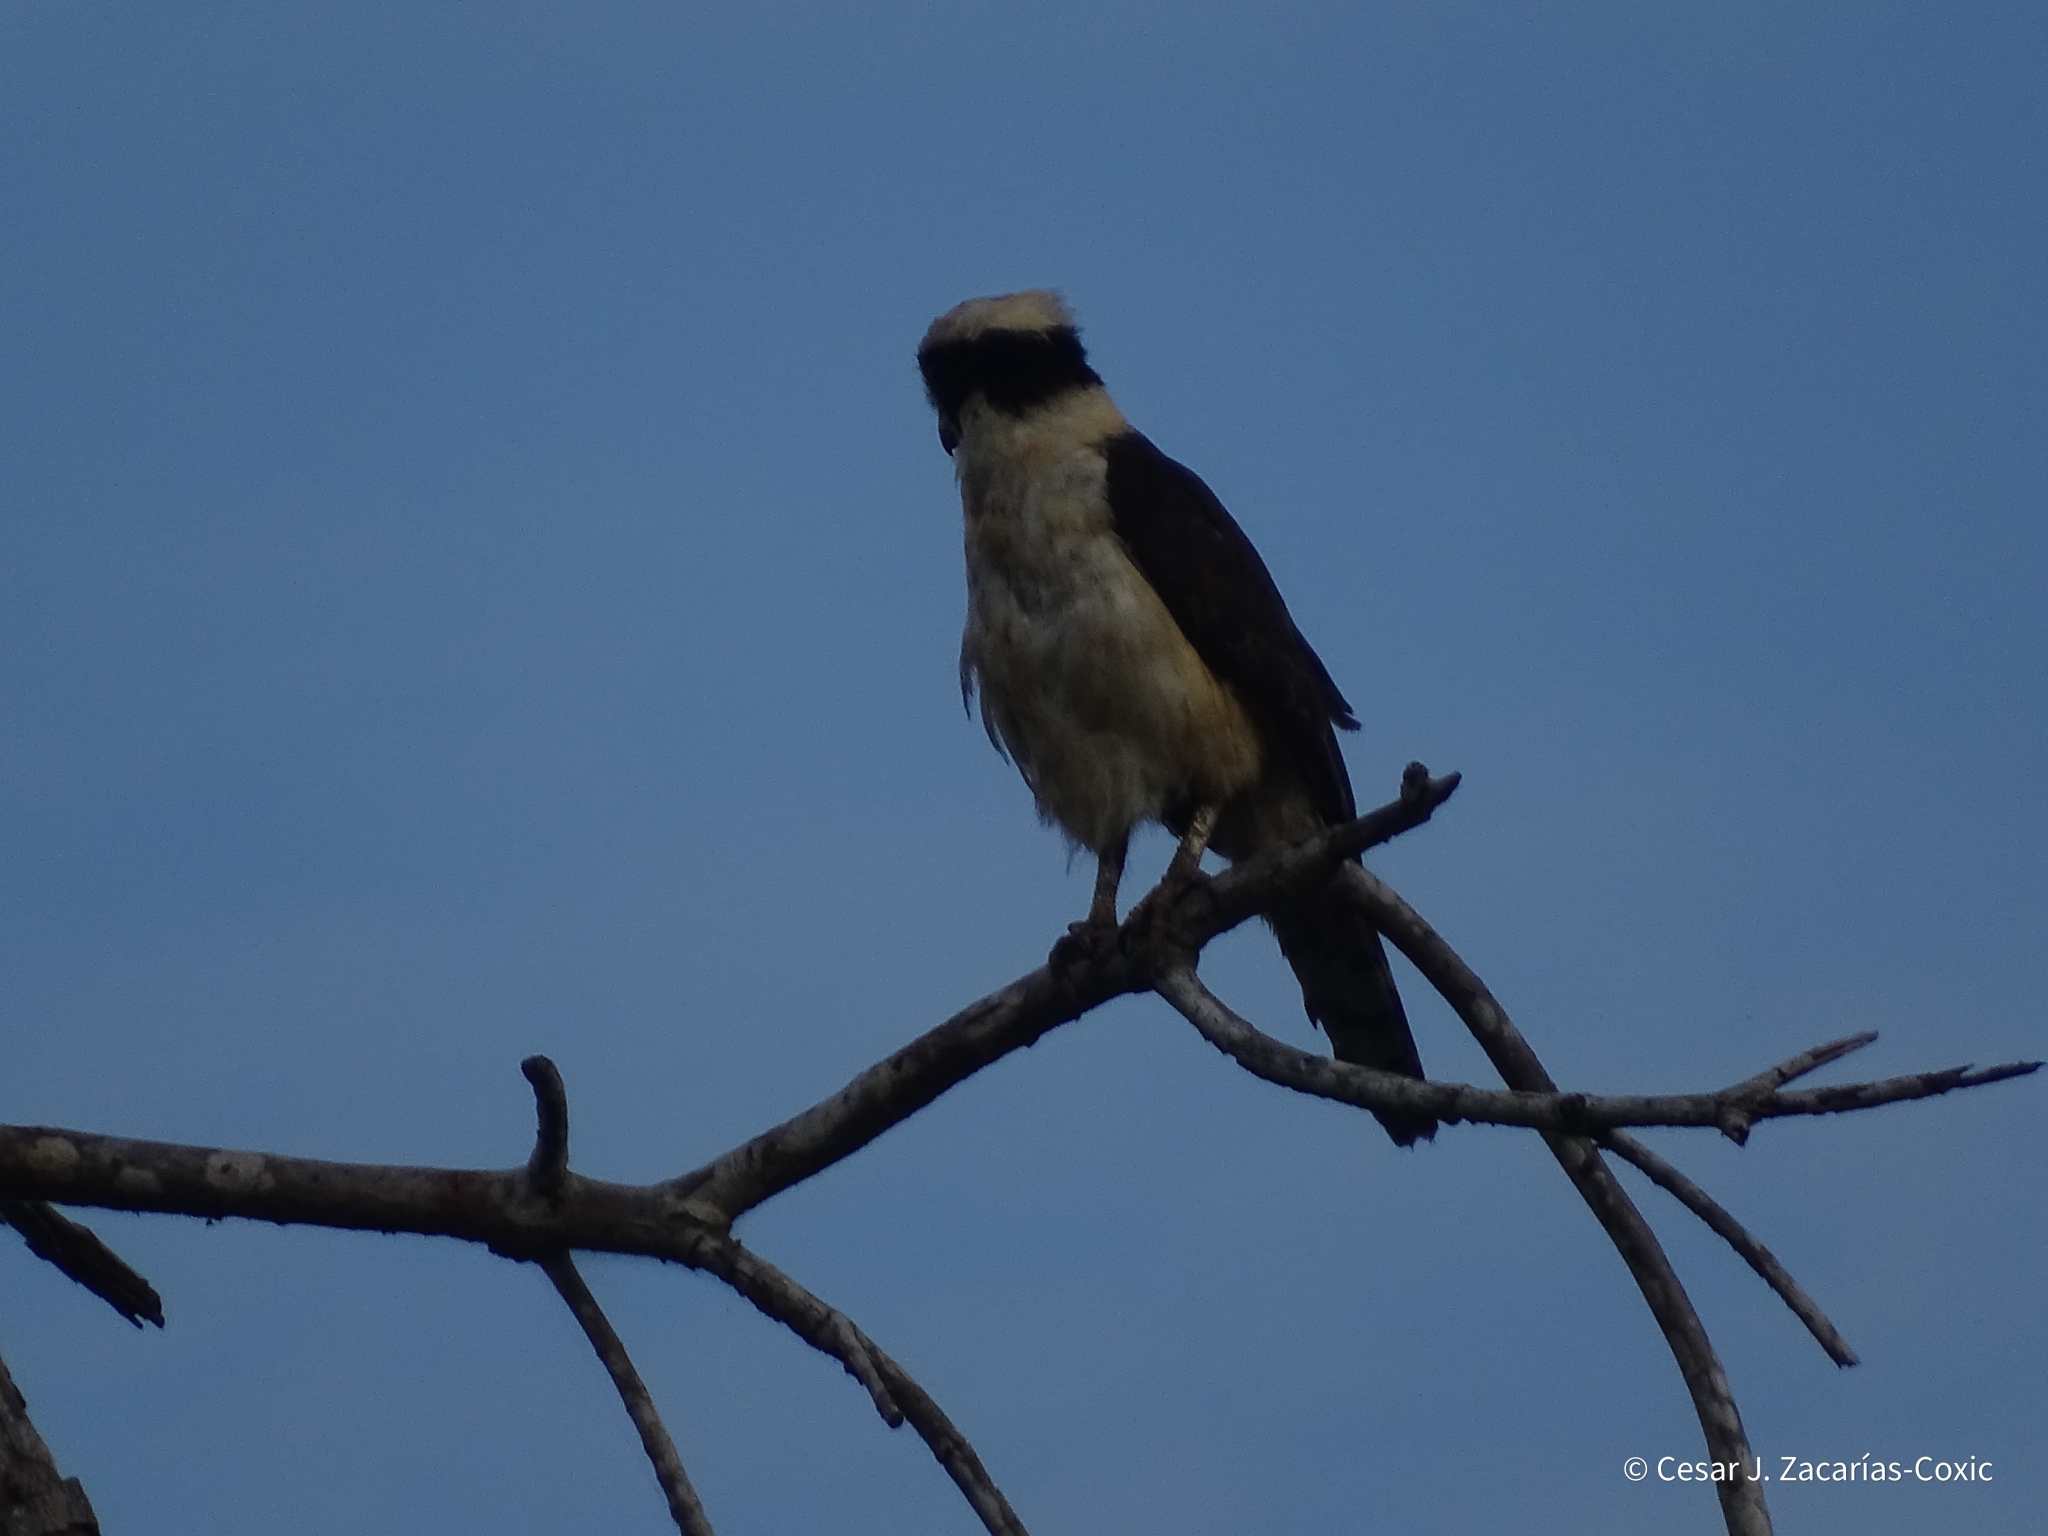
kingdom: Animalia
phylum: Chordata
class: Aves
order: Falconiformes
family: Falconidae
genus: Herpetotheres
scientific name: Herpetotheres cachinnans
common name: Laughing falcon
